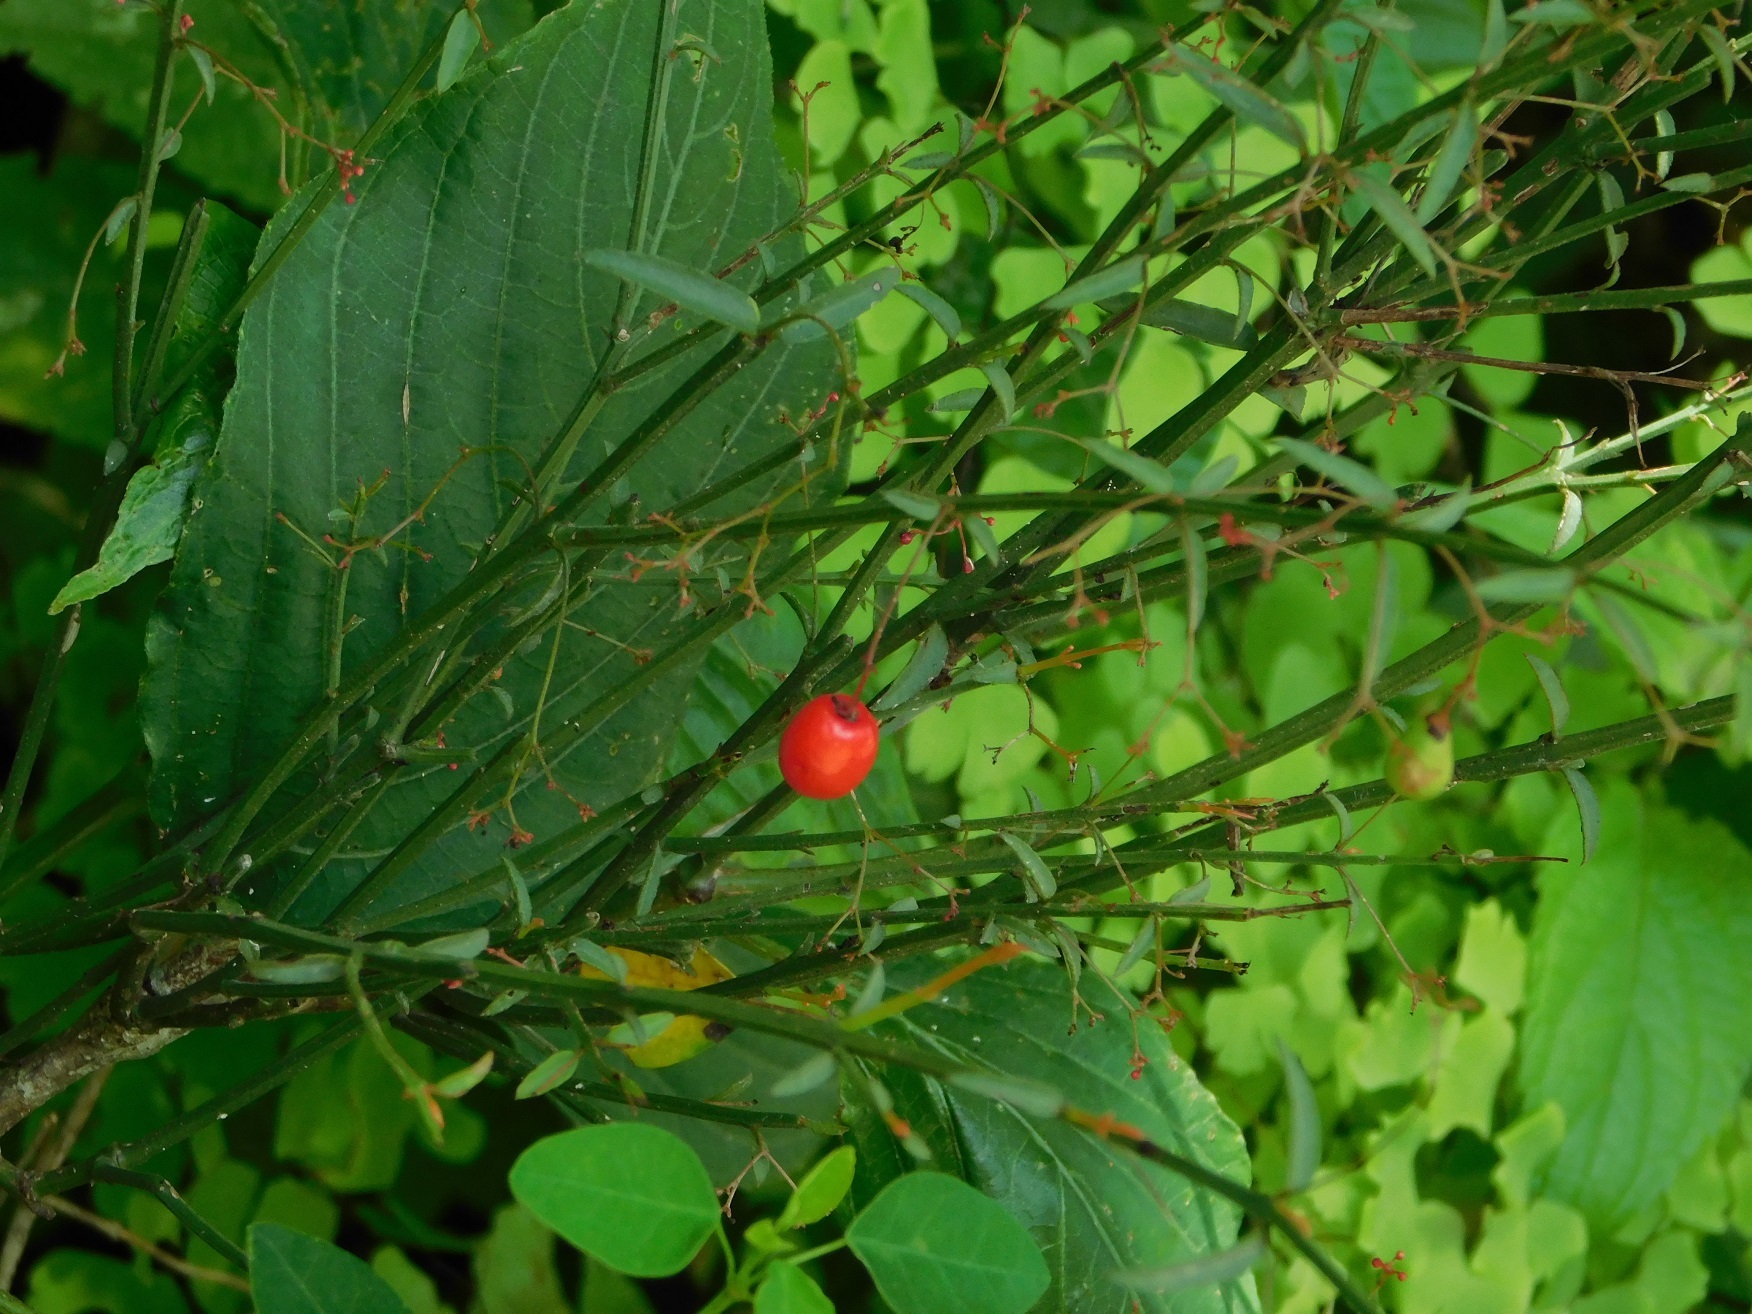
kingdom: Plantae
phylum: Tracheophyta
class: Magnoliopsida
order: Celastrales
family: Celastraceae
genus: Crossopetalum
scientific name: Crossopetalum uragoga
